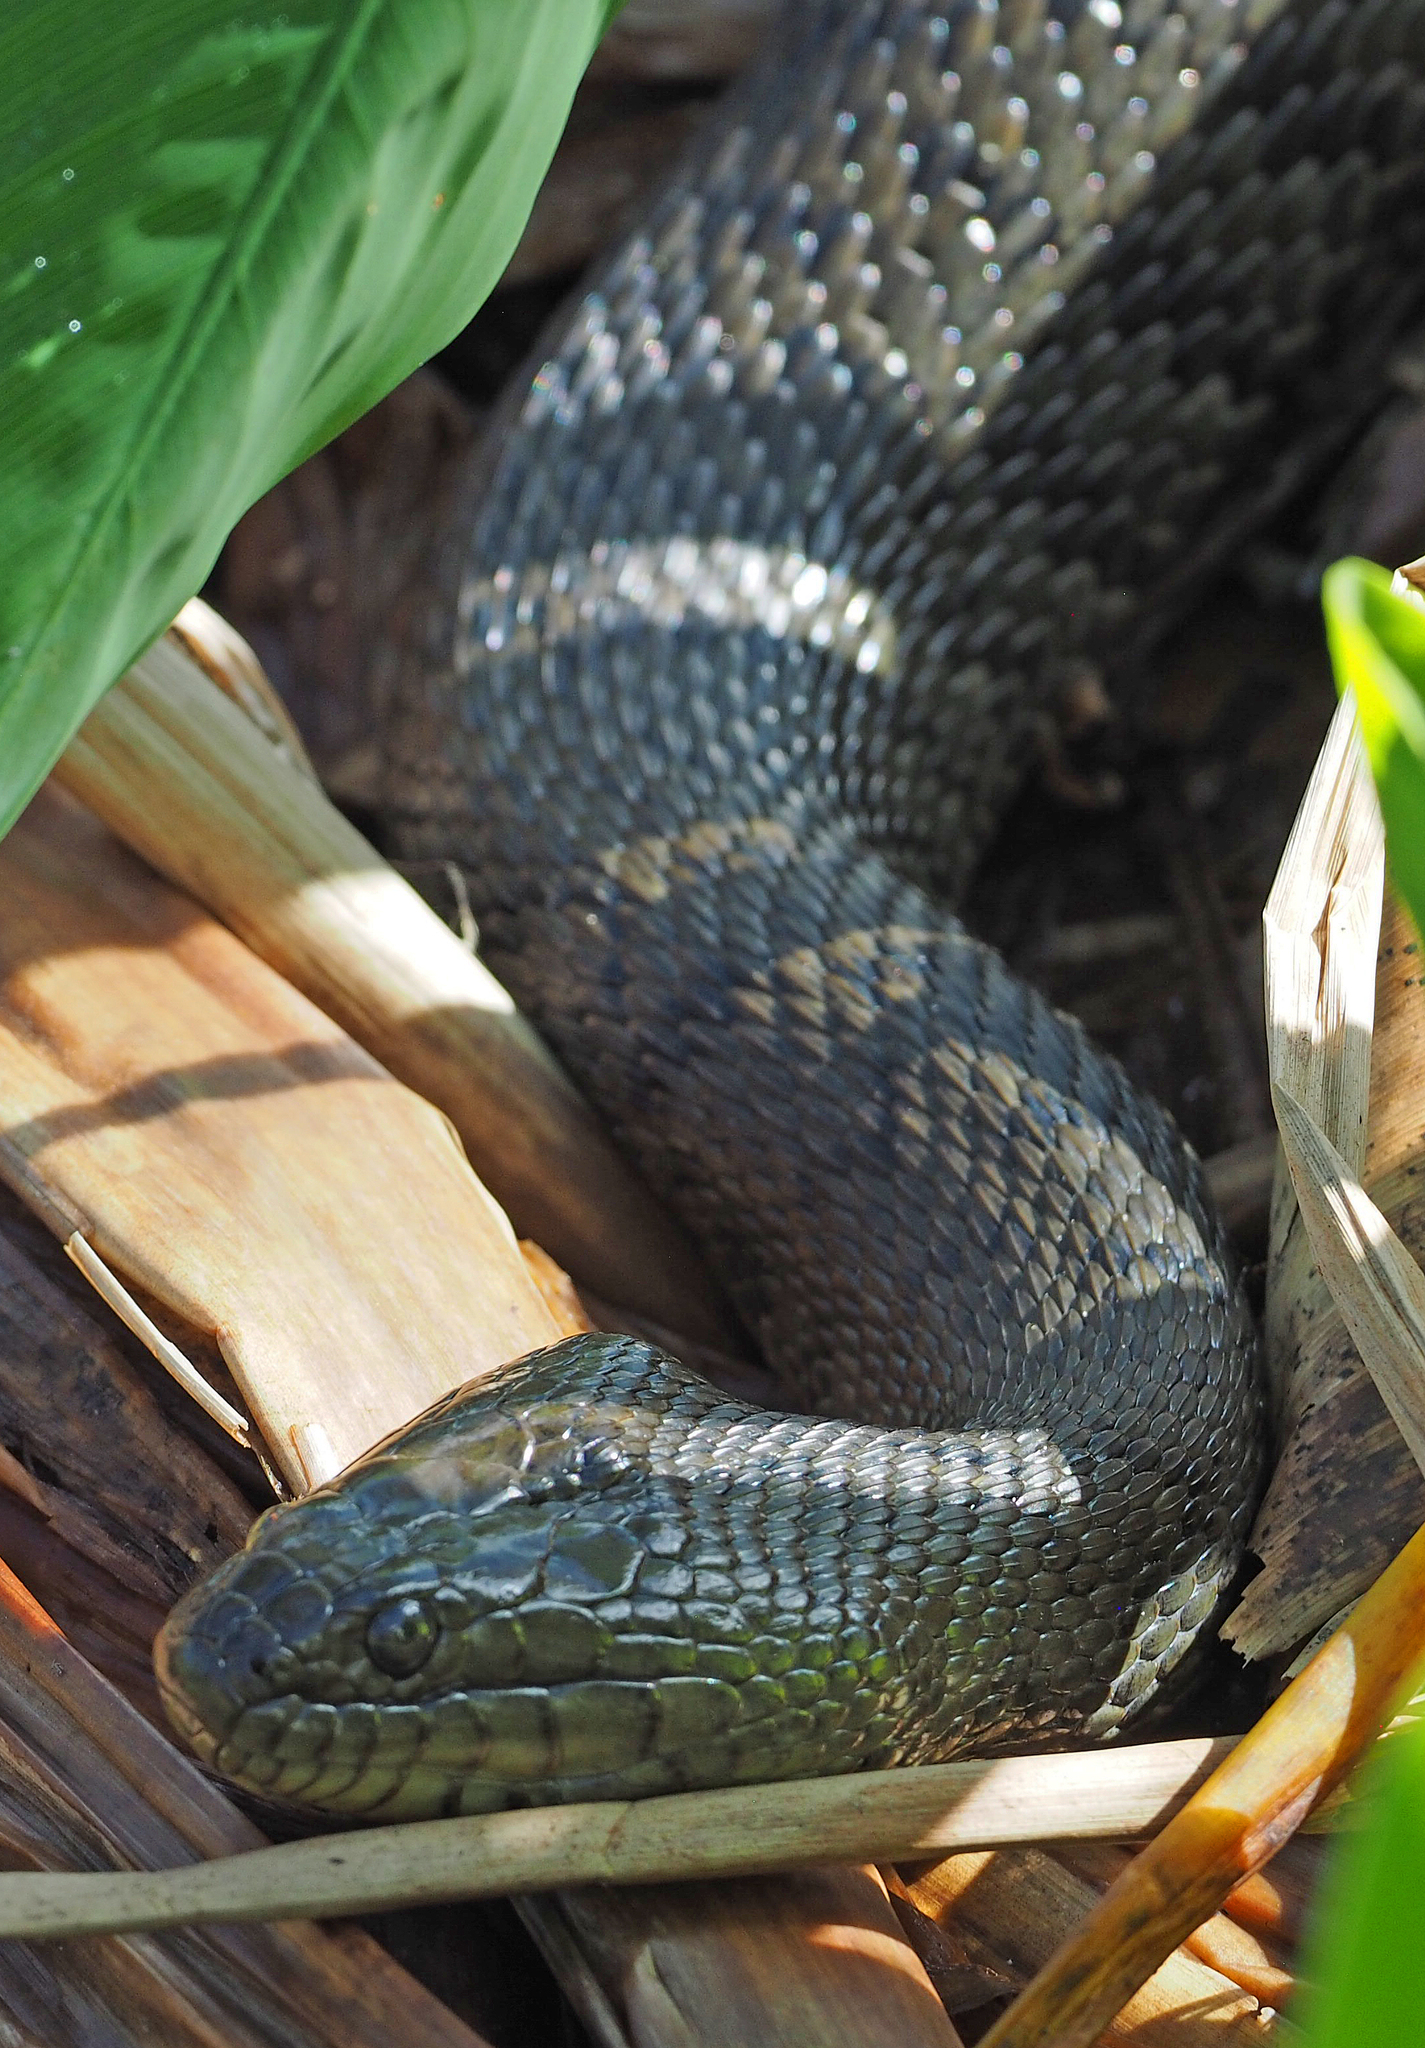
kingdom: Animalia
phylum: Chordata
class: Squamata
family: Colubridae
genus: Nerodia
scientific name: Nerodia floridana
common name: Florida green watersnake
